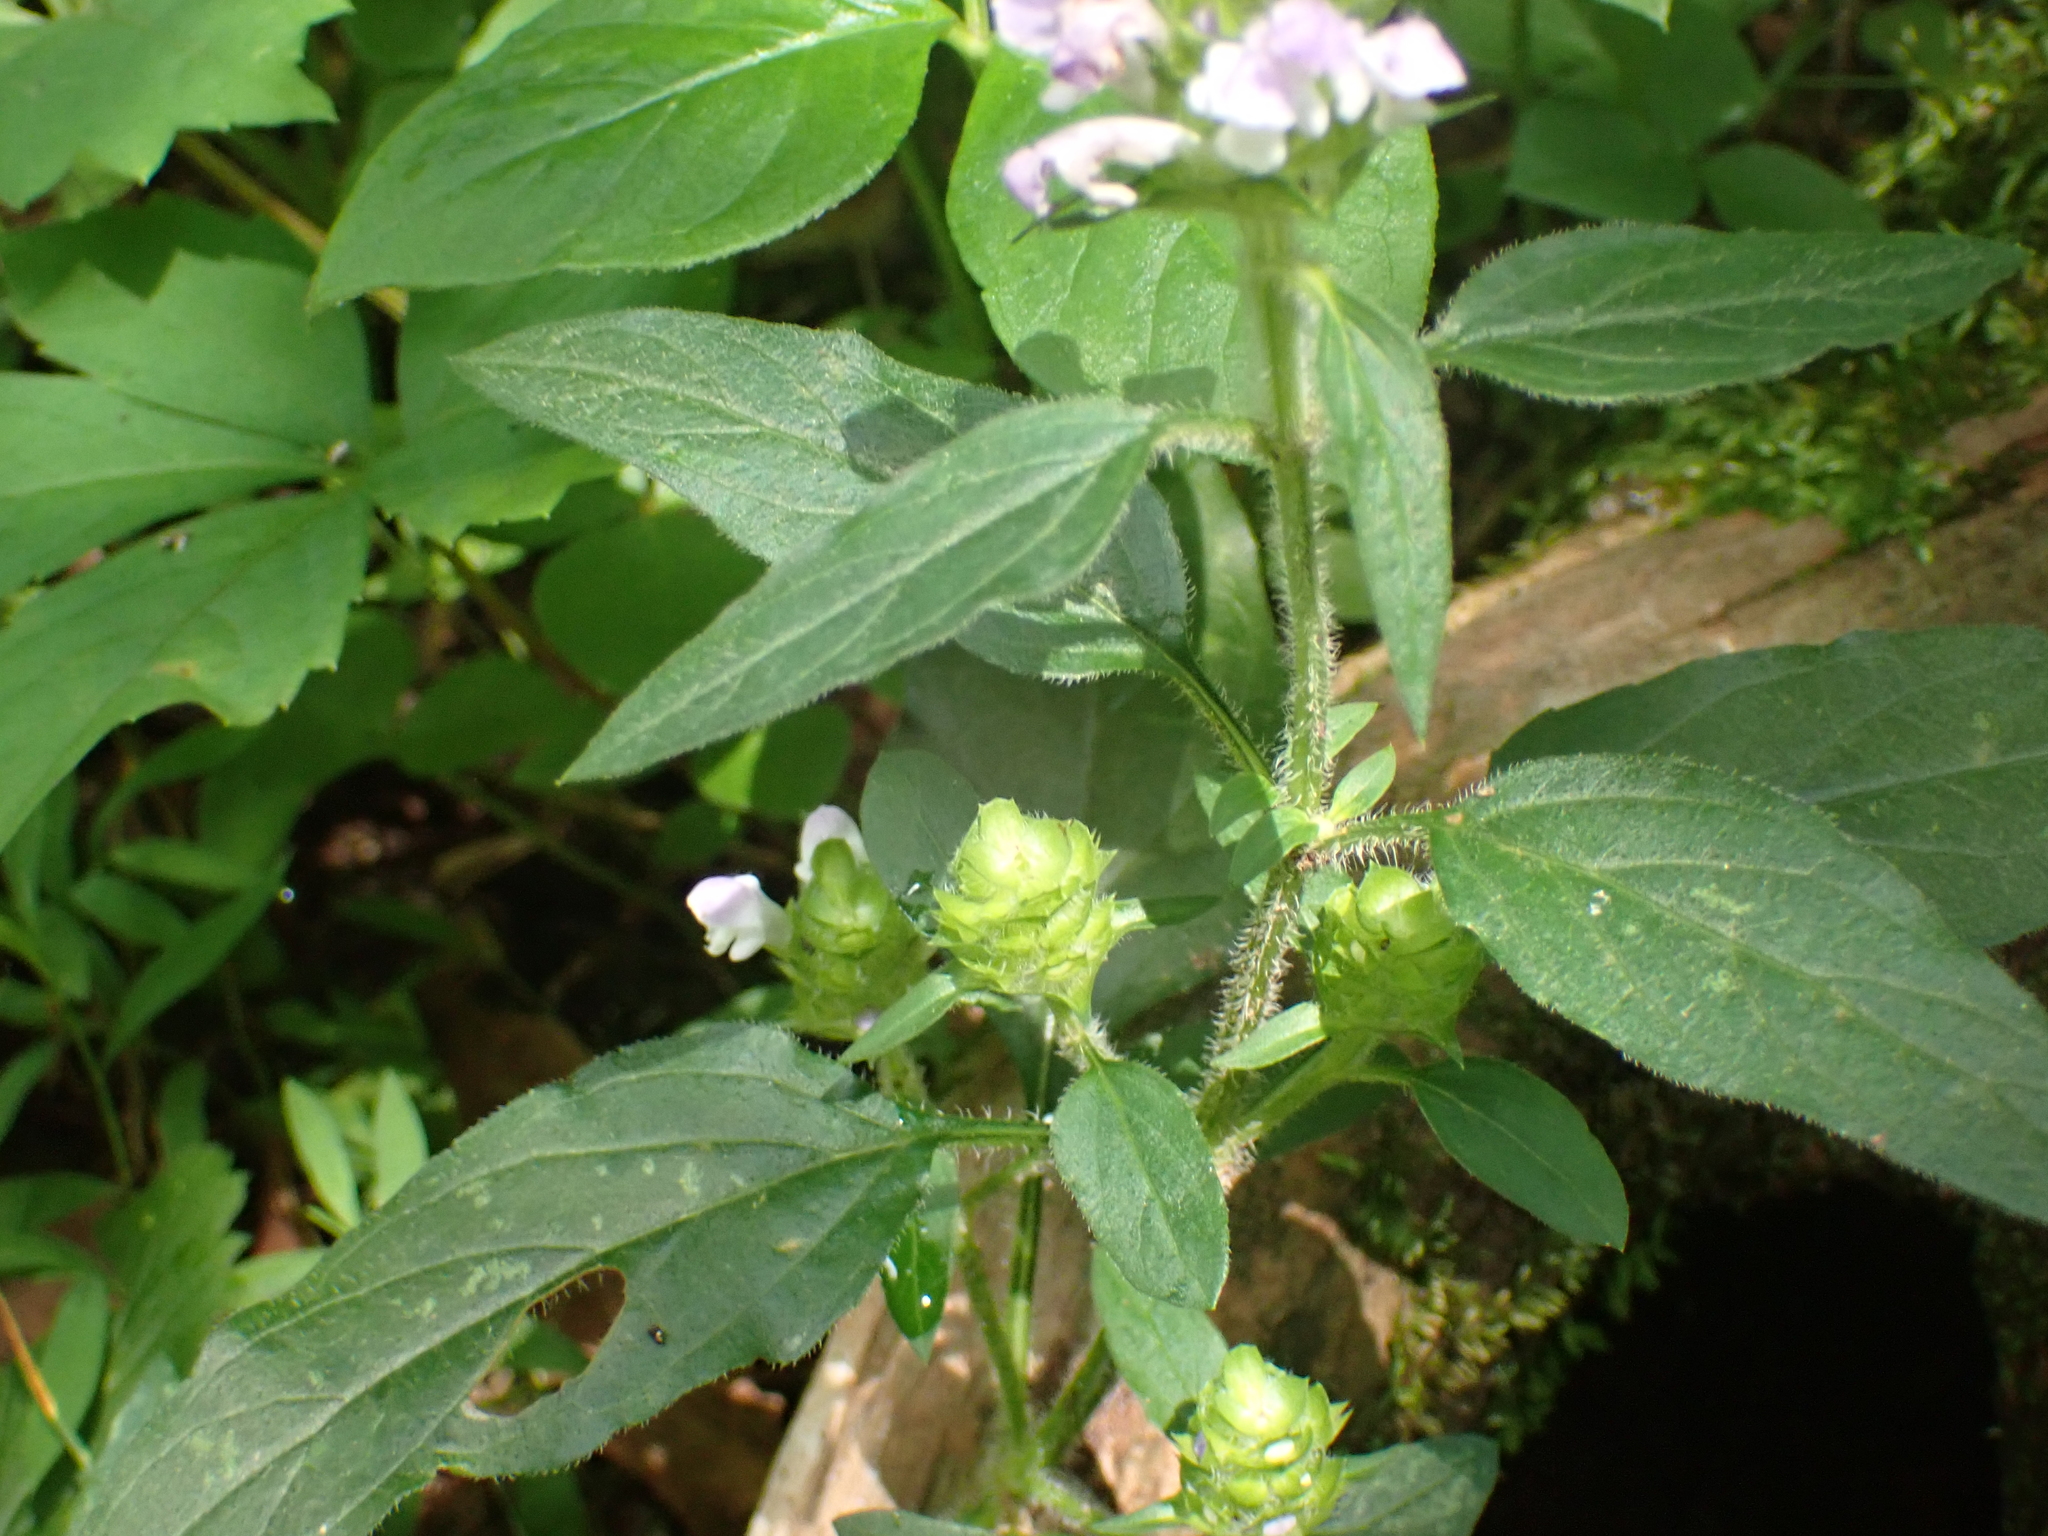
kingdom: Plantae
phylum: Tracheophyta
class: Magnoliopsida
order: Lamiales
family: Lamiaceae
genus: Prunella
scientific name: Prunella vulgaris
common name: Heal-all
